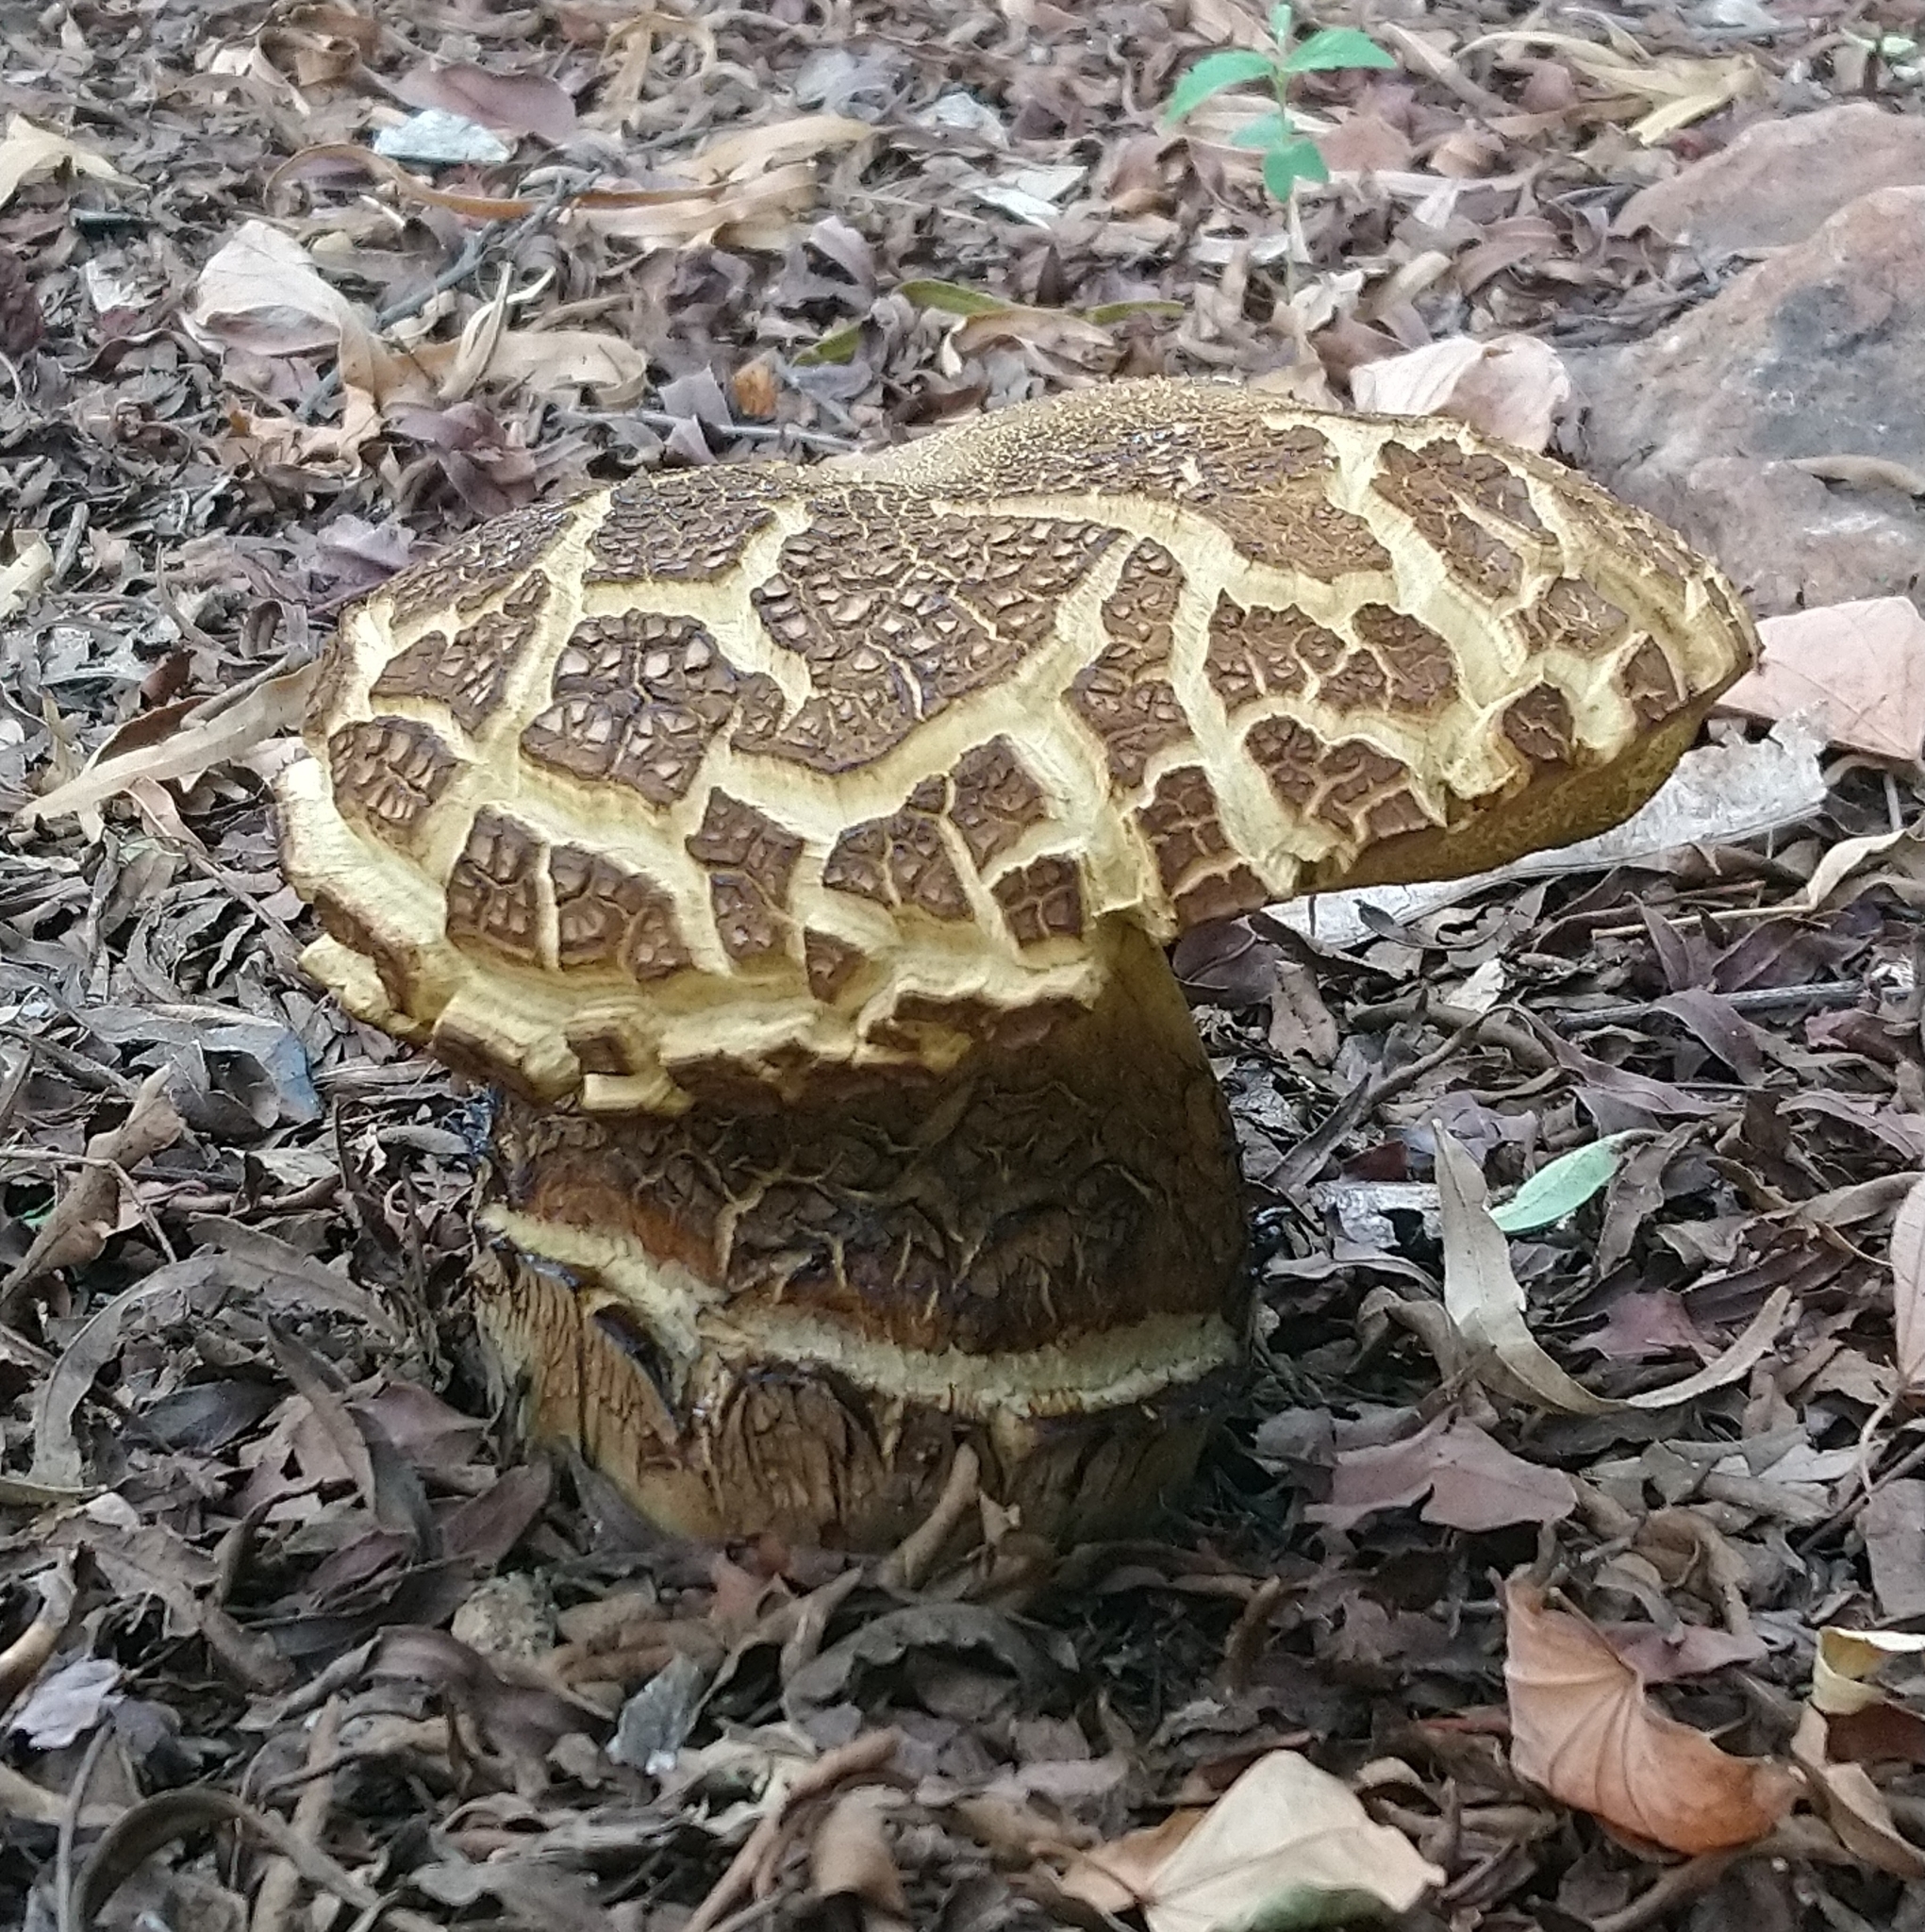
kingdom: Fungi
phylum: Basidiomycota
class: Agaricomycetes
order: Boletales
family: Boletinellaceae
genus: Phlebopus
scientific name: Phlebopus sudanicus
